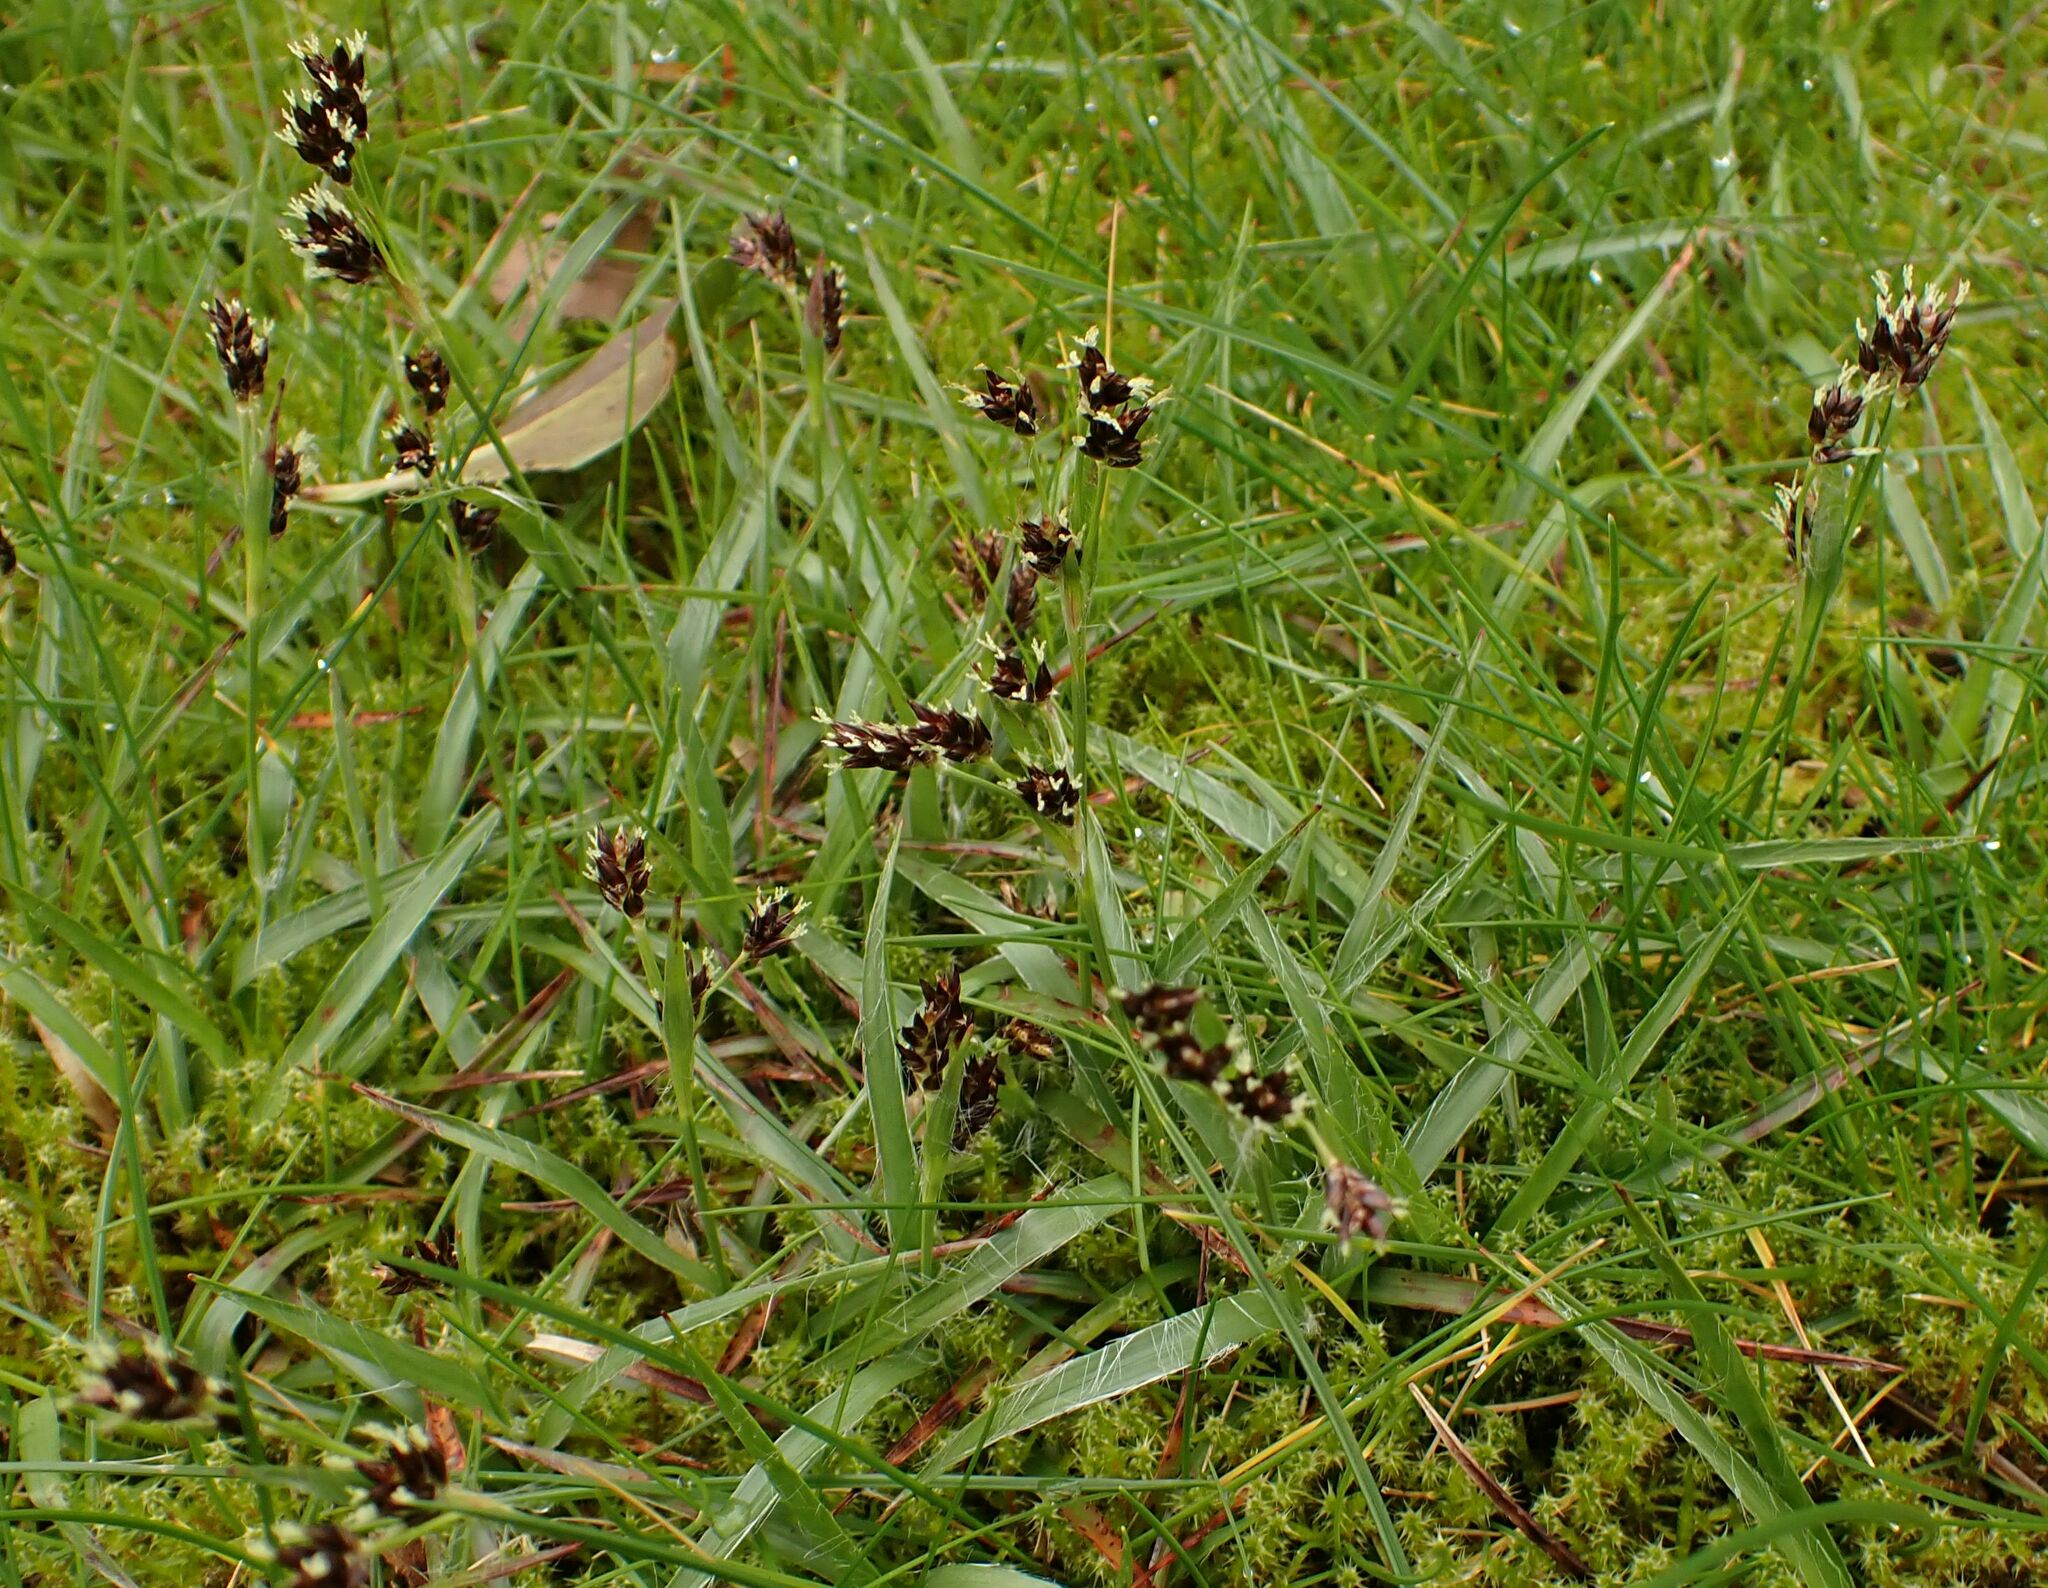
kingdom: Plantae
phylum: Tracheophyta
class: Liliopsida
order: Poales
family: Juncaceae
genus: Luzula
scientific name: Luzula campestris
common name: Field wood-rush
